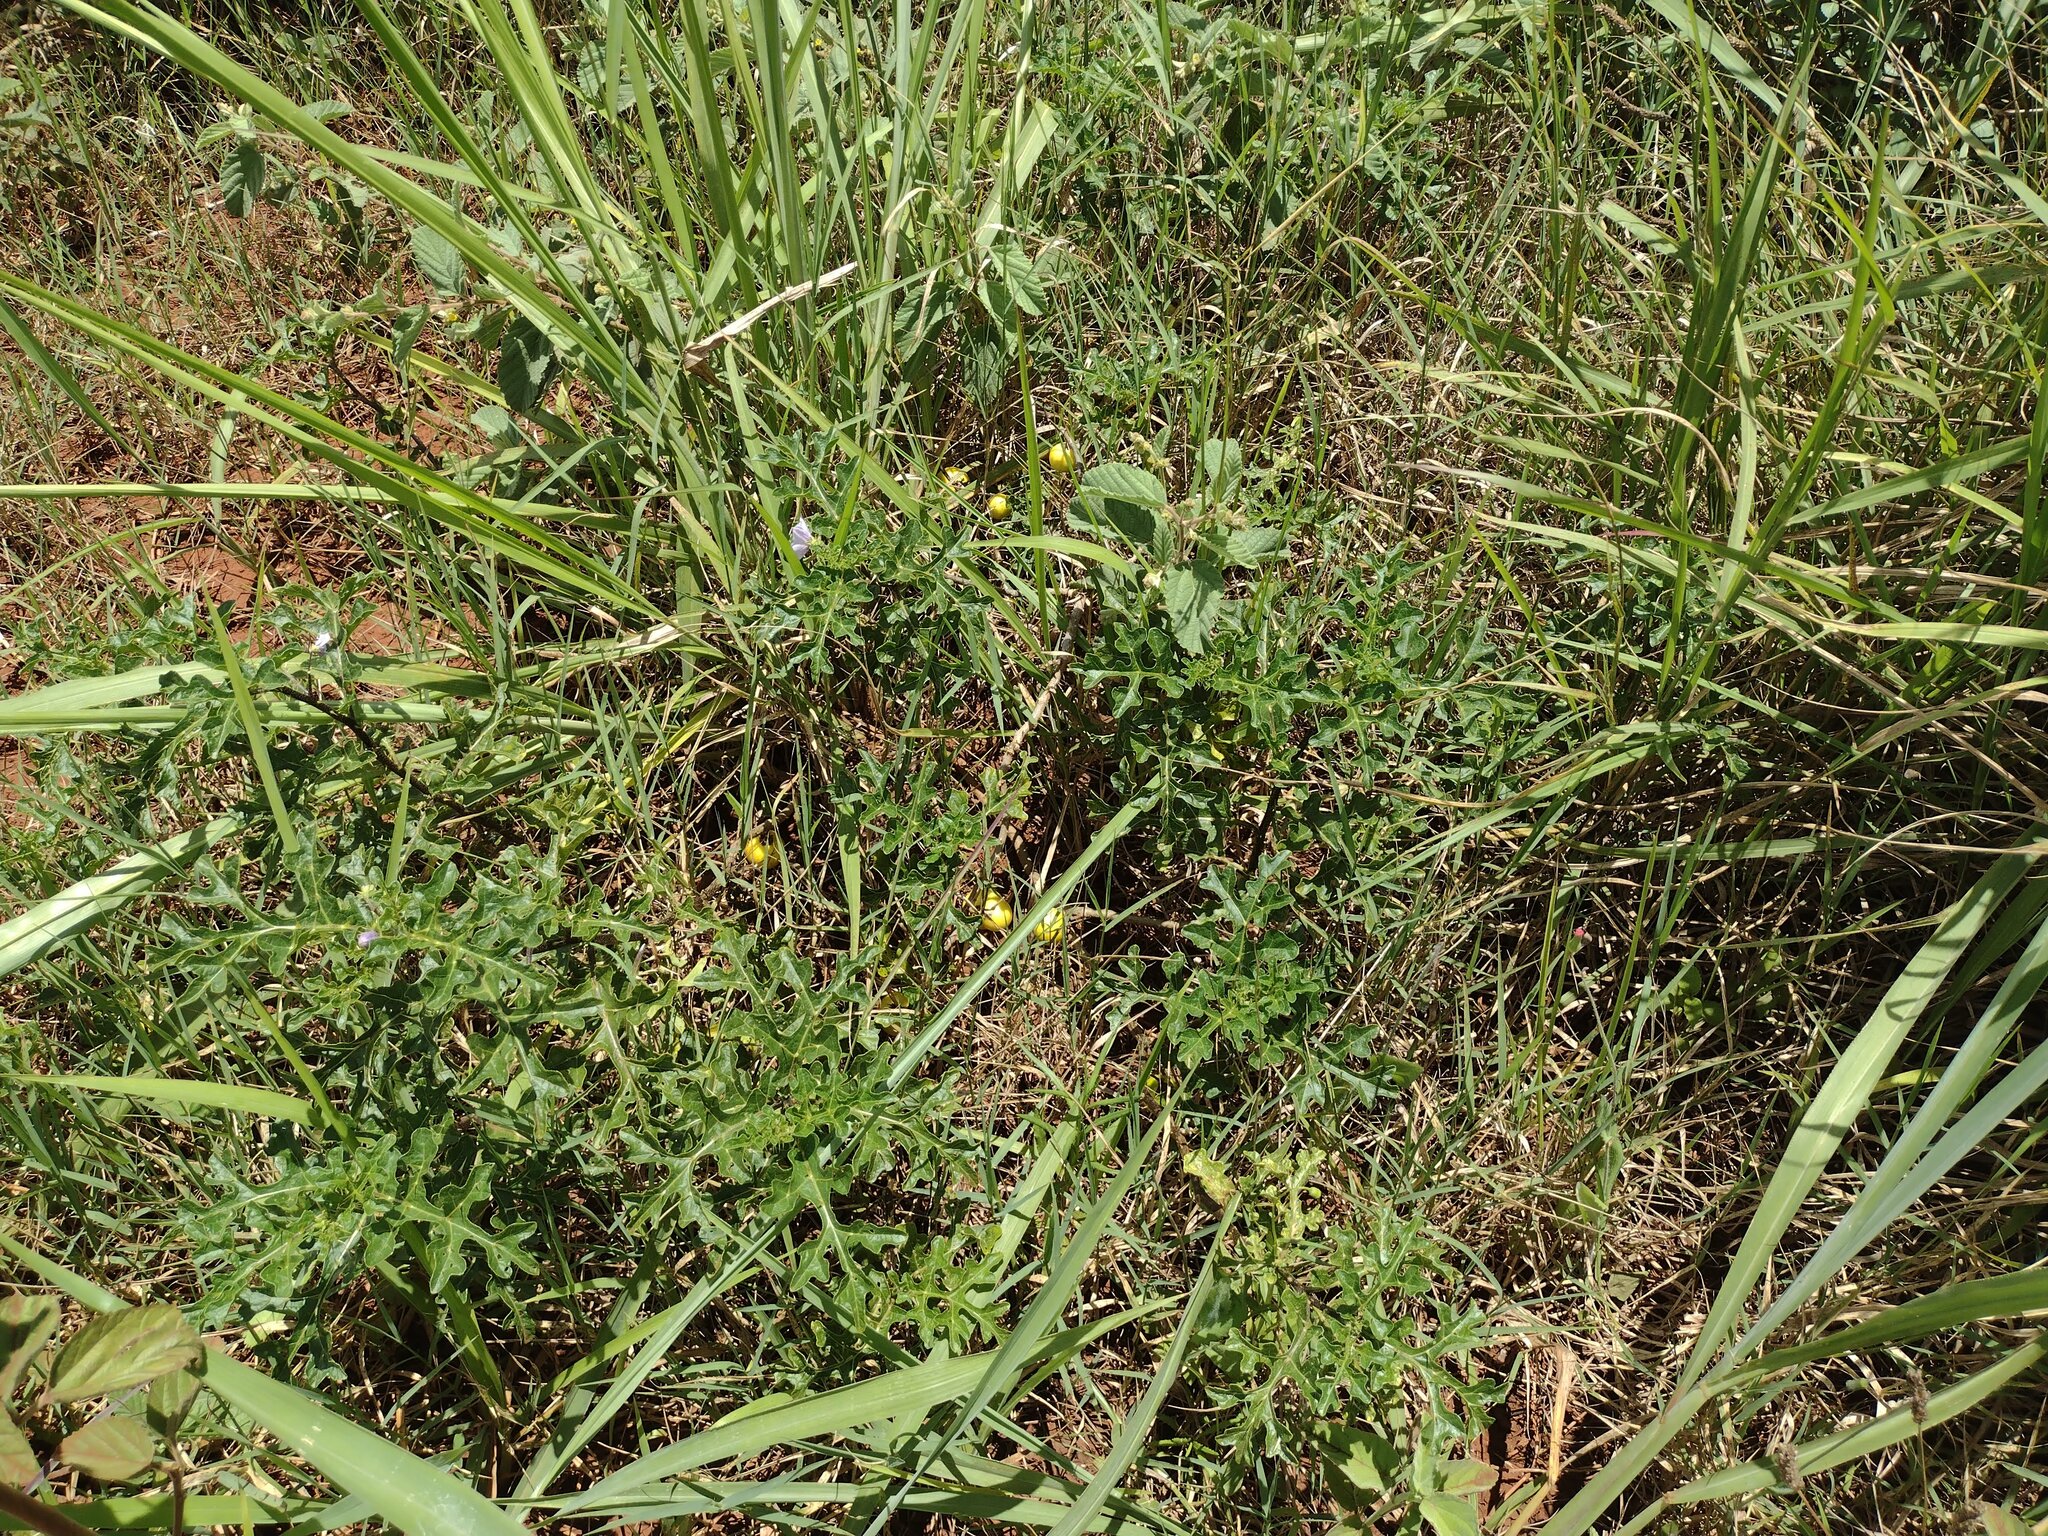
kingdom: Plantae
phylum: Tracheophyta
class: Magnoliopsida
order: Solanales
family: Solanaceae
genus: Solanum
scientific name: Solanum linnaeanum
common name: Nightshade
